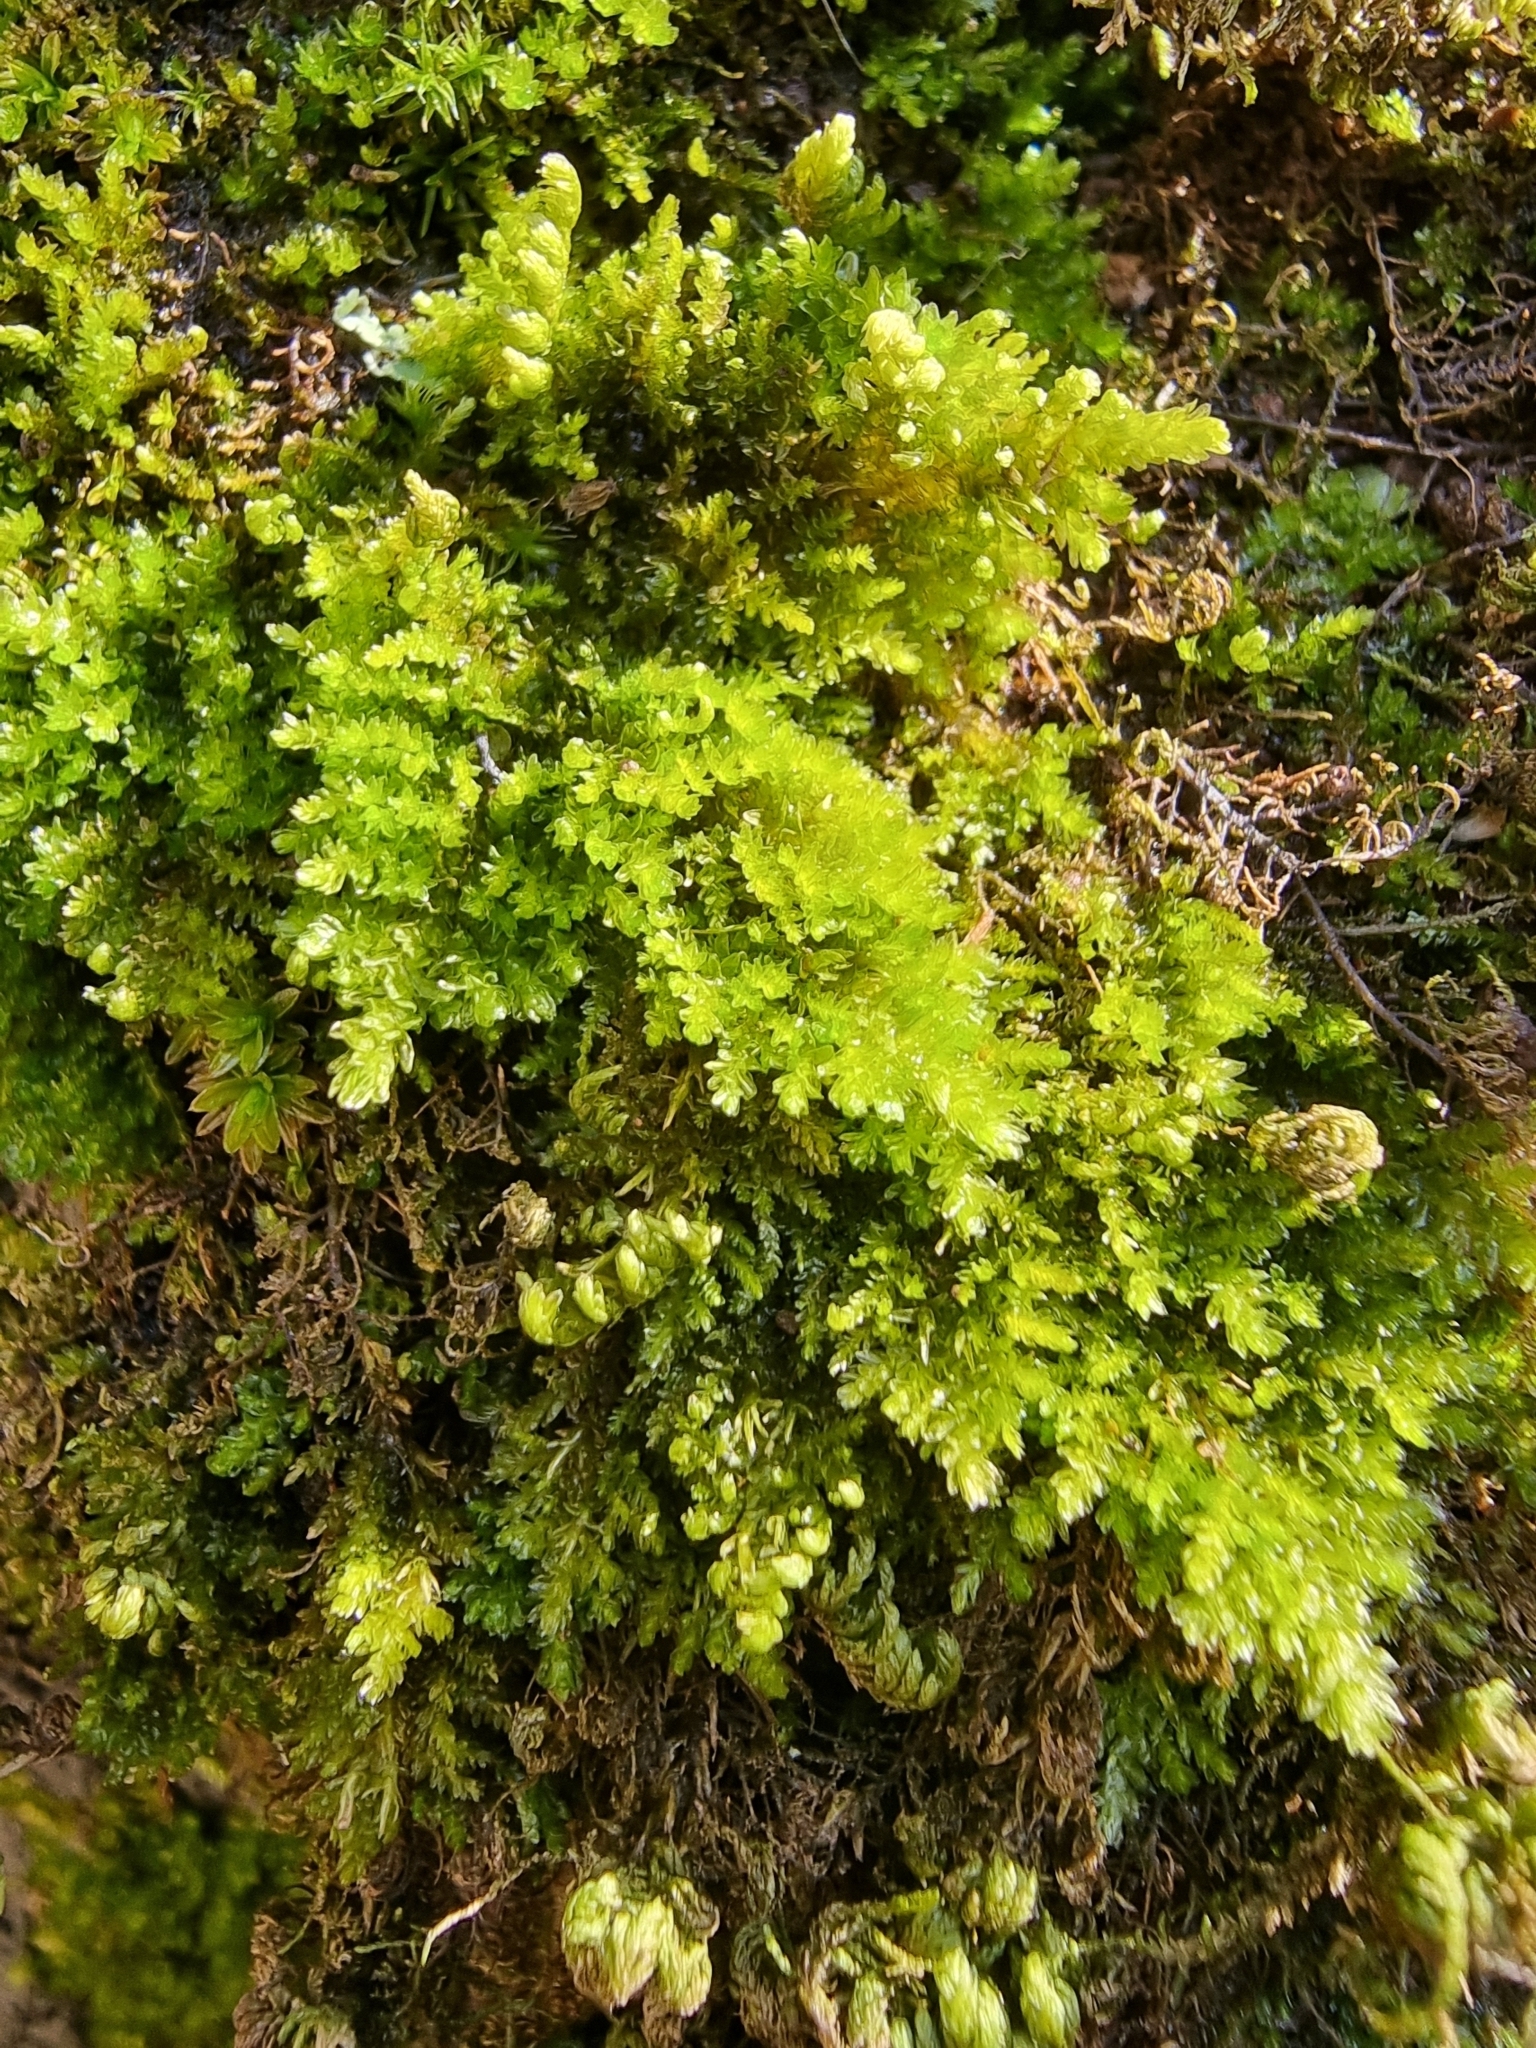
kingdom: Plantae
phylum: Bryophyta
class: Bryopsida
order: Hypnales
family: Neckeraceae
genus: Leptodon
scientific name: Leptodon smithii
